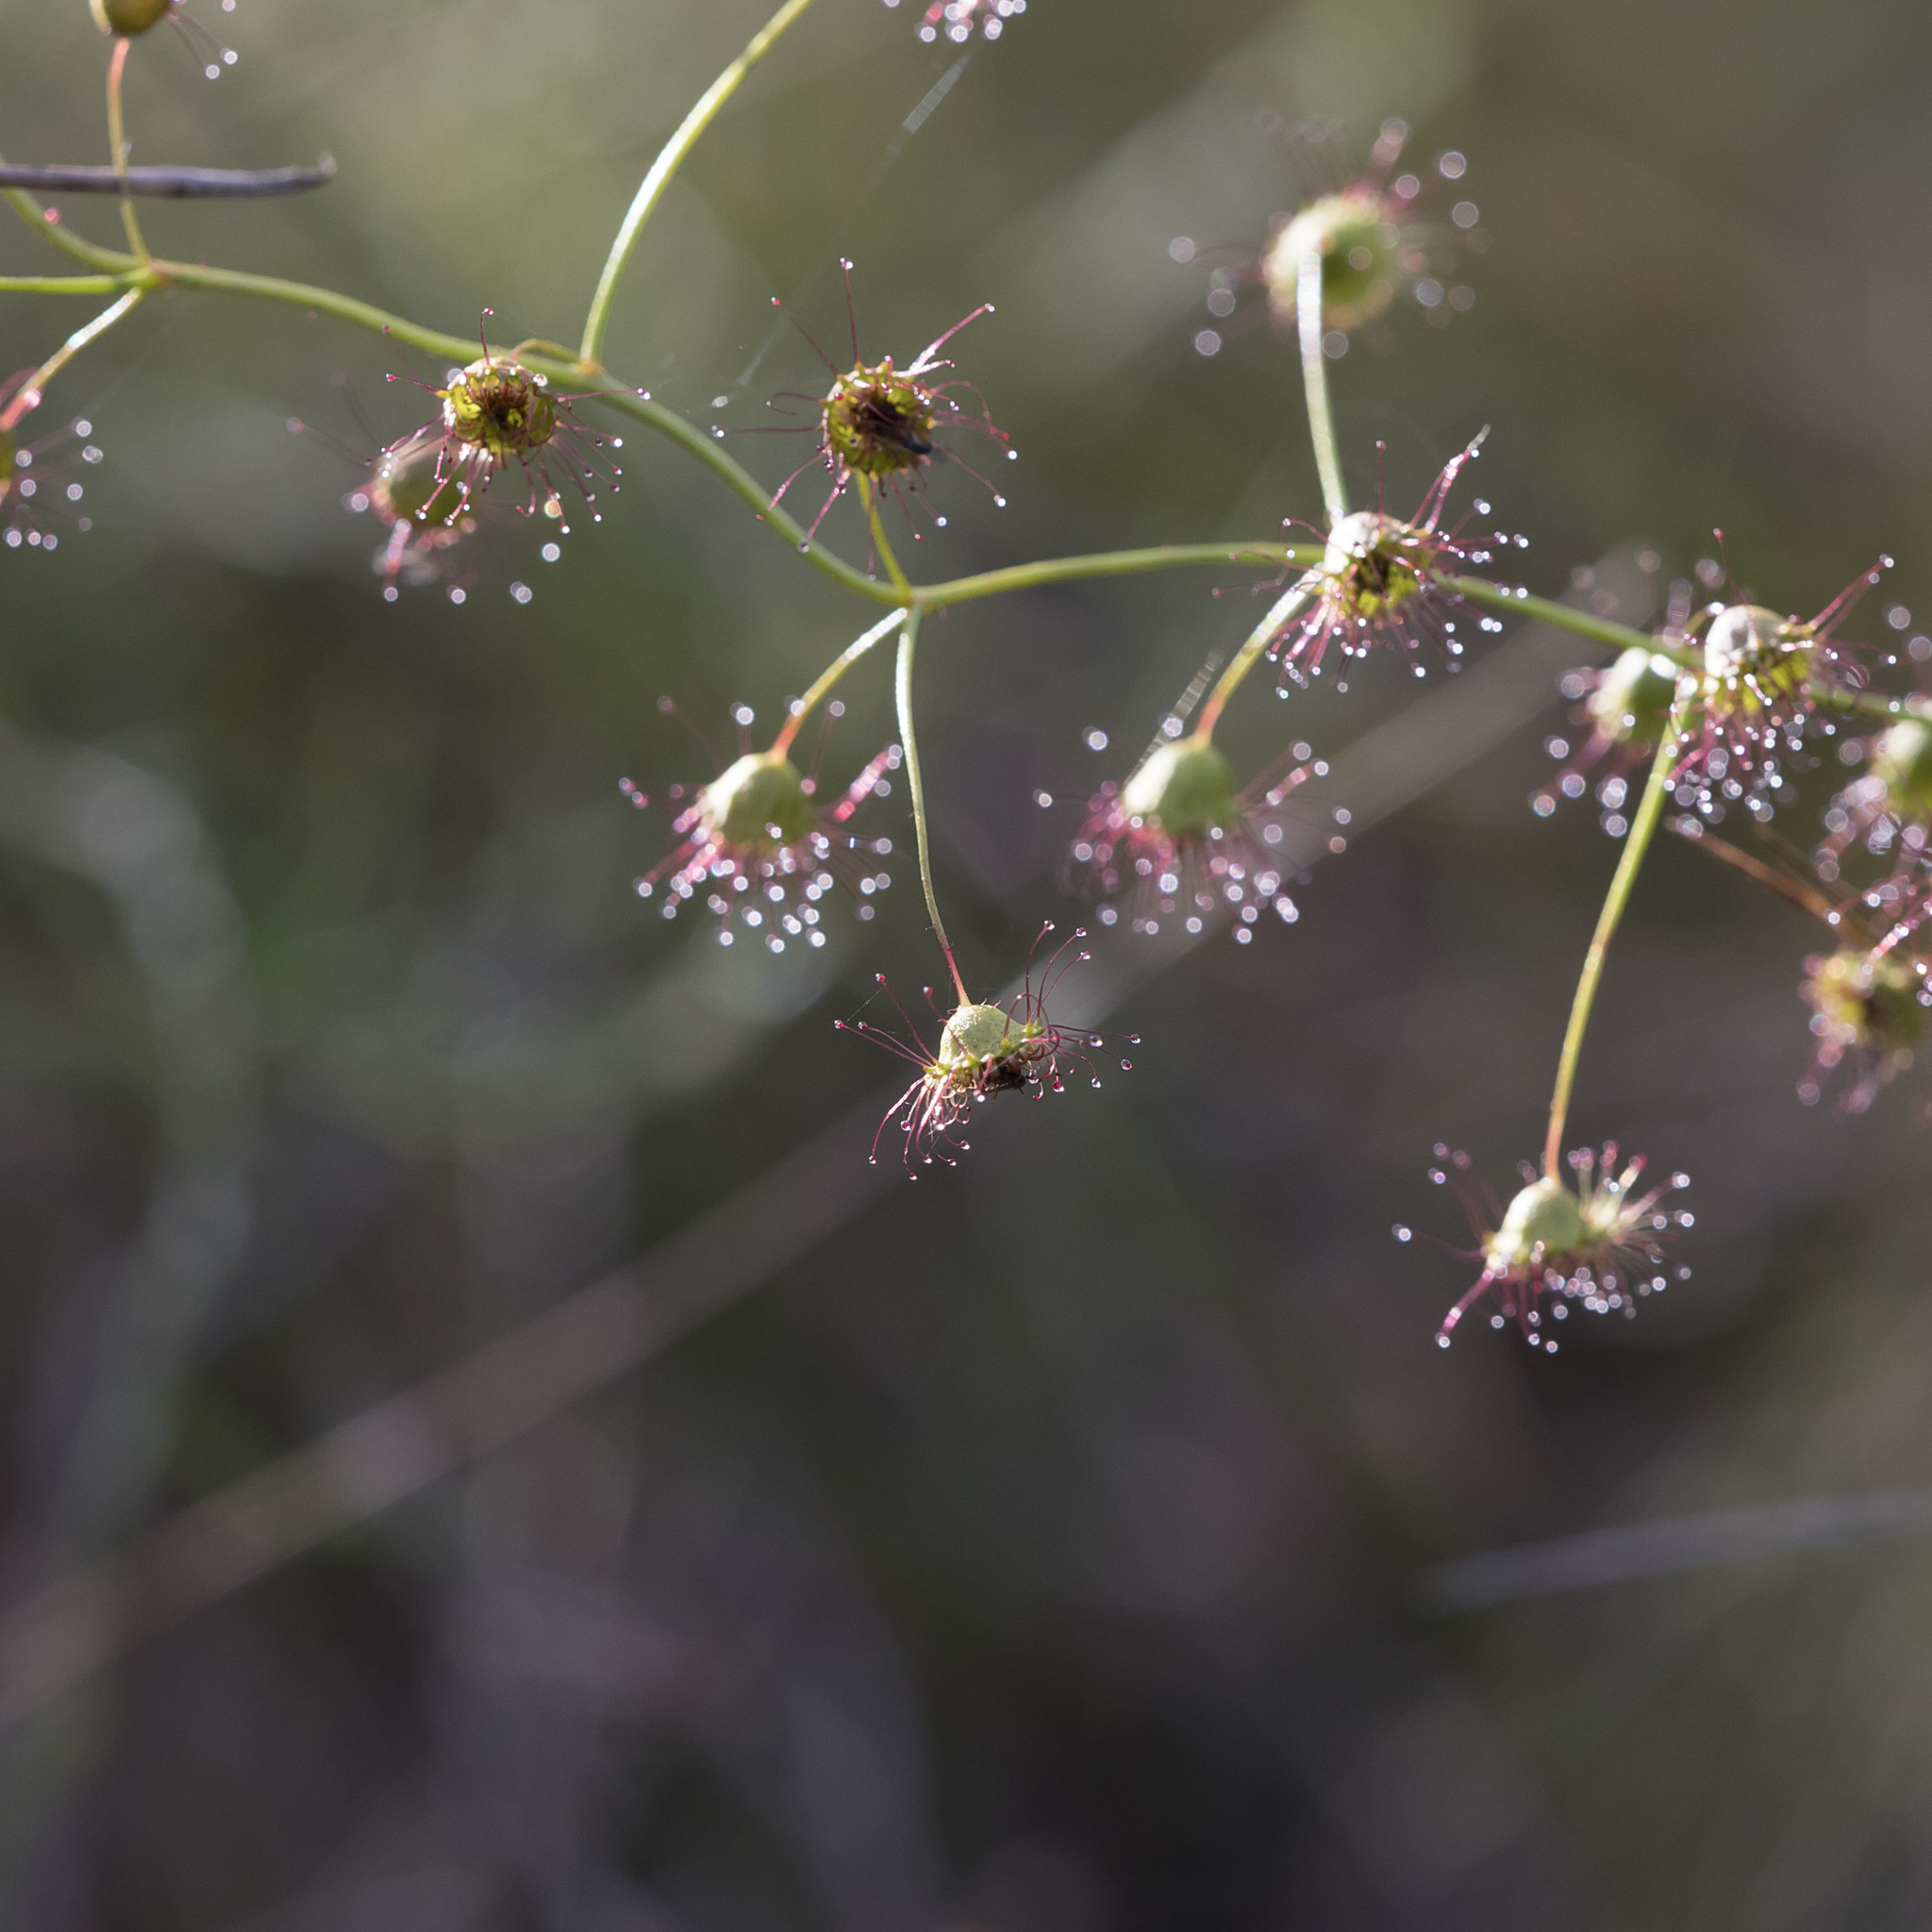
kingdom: Plantae
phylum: Tracheophyta
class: Magnoliopsida
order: Caryophyllales
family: Droseraceae
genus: Drosera
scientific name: Drosera planchonii
